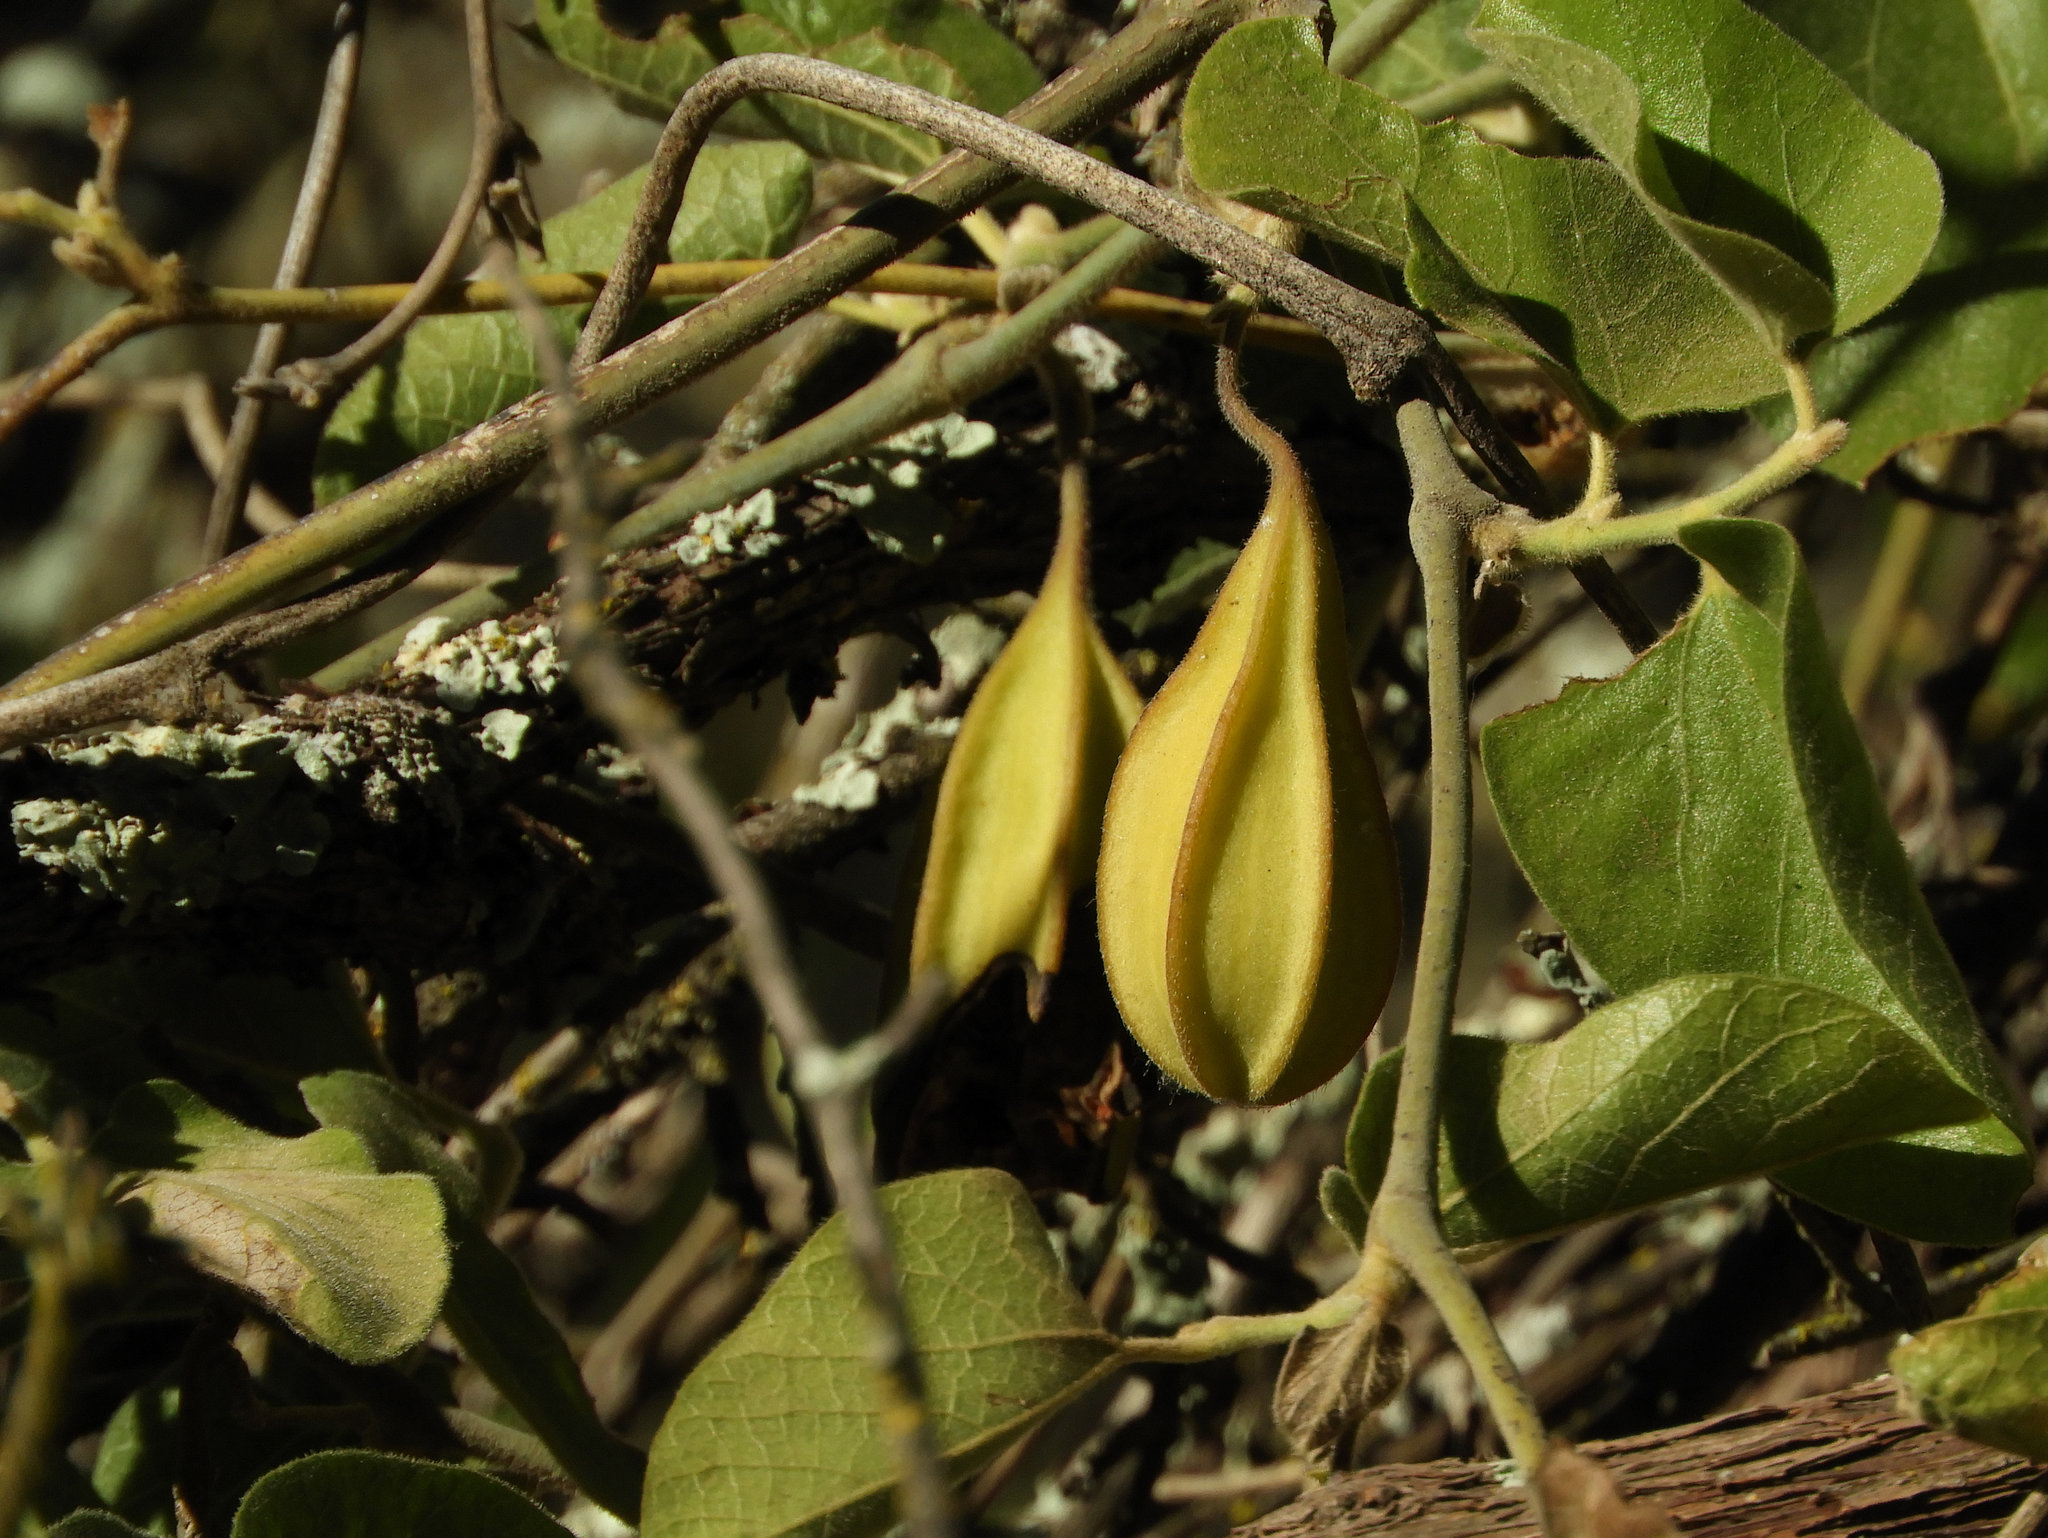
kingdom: Plantae
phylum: Tracheophyta
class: Magnoliopsida
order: Piperales
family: Aristolochiaceae
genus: Isotrema
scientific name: Isotrema californicum
